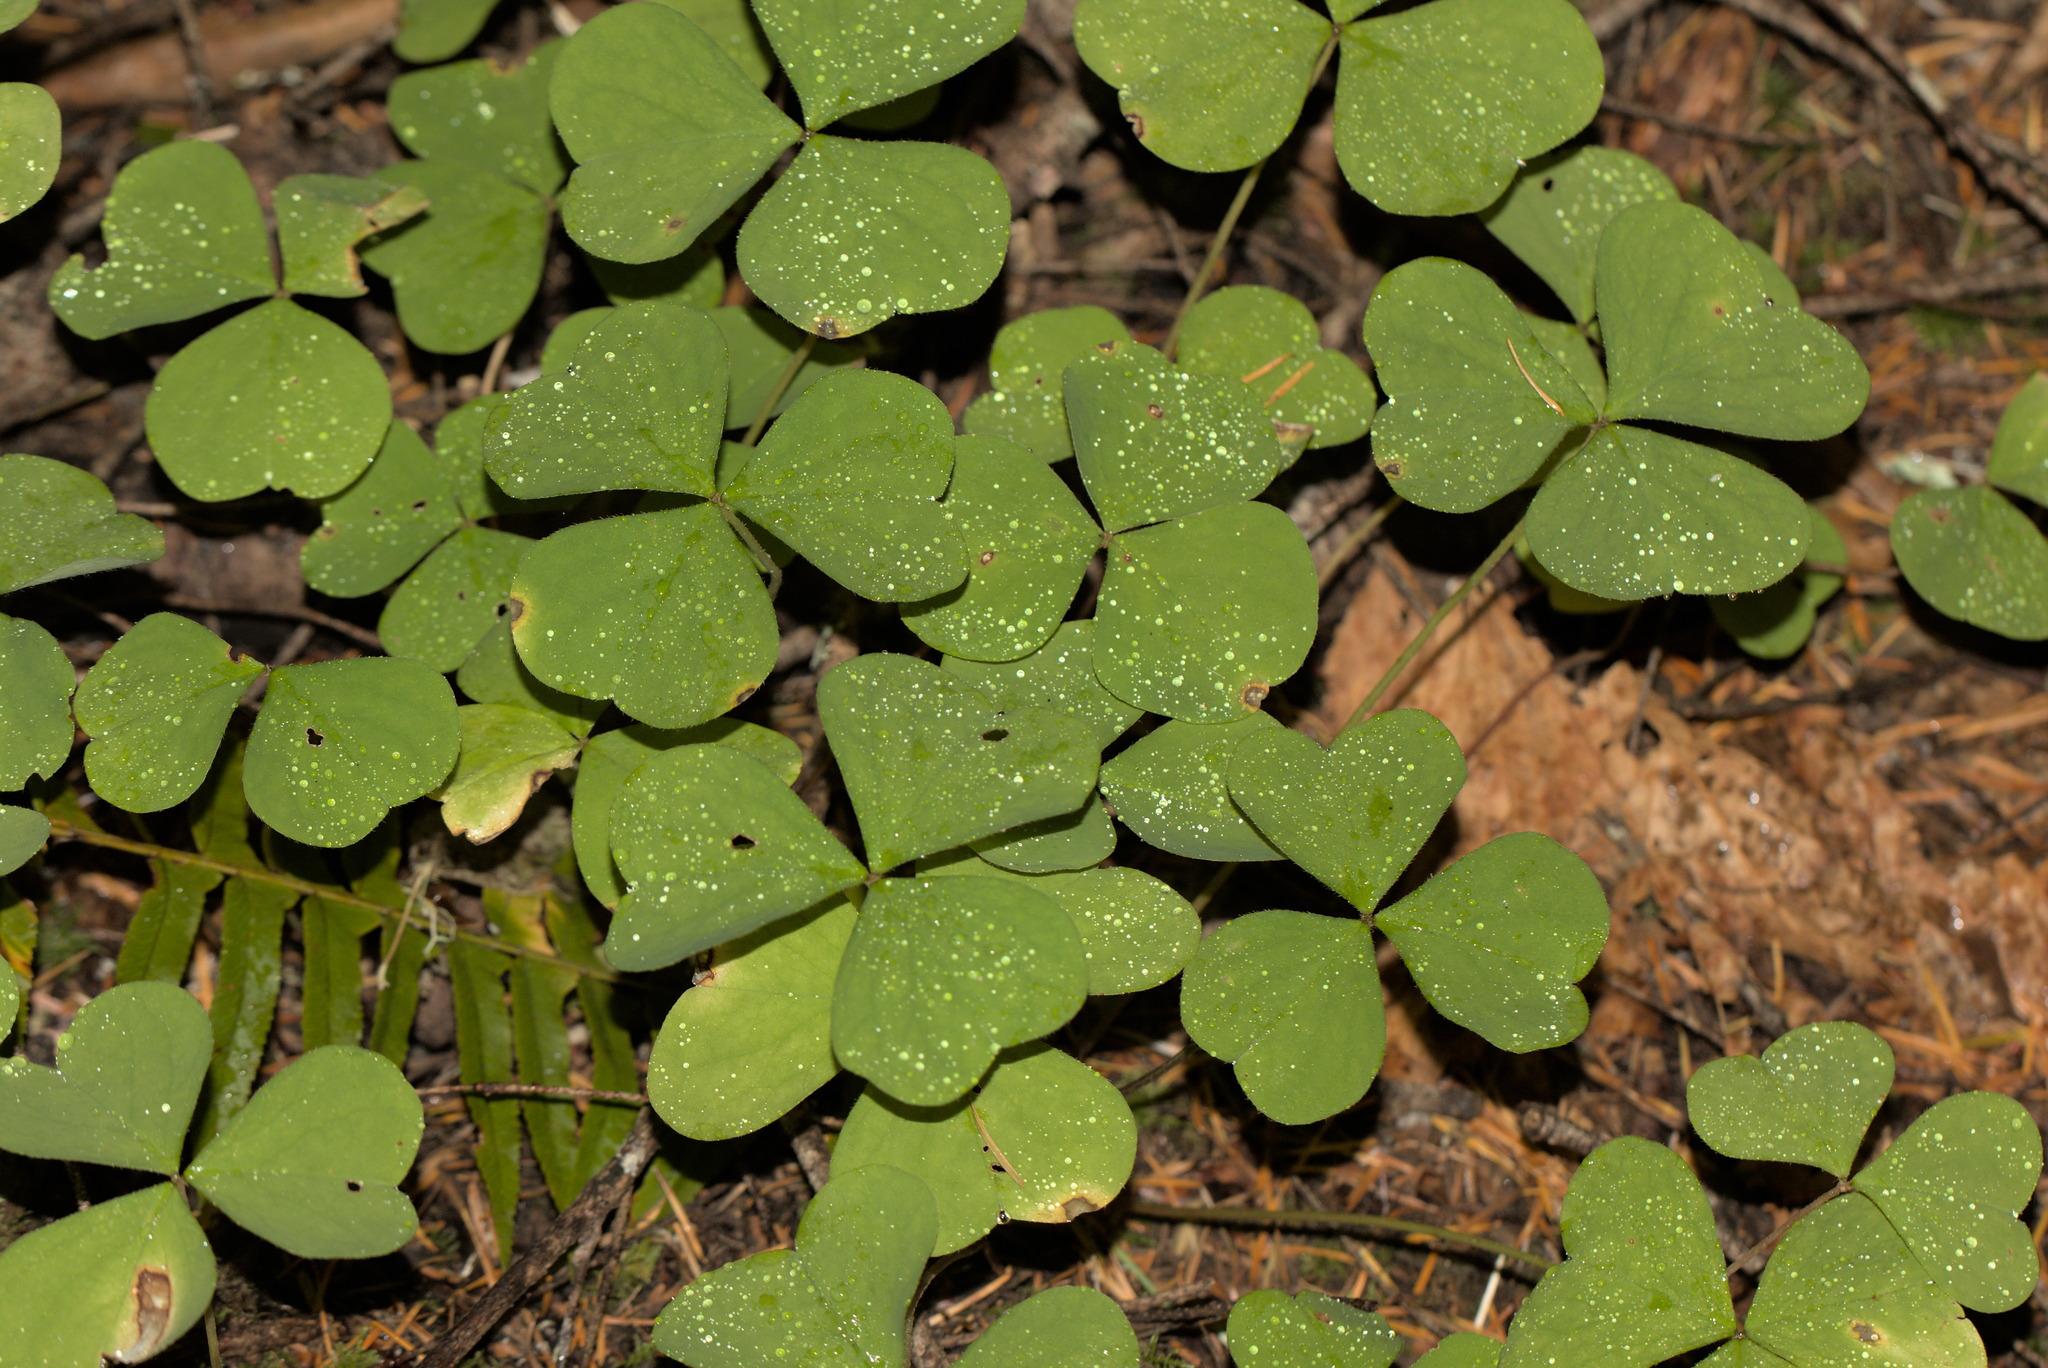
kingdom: Plantae
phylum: Tracheophyta
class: Magnoliopsida
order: Oxalidales
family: Oxalidaceae
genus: Oxalis
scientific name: Oxalis oregana
